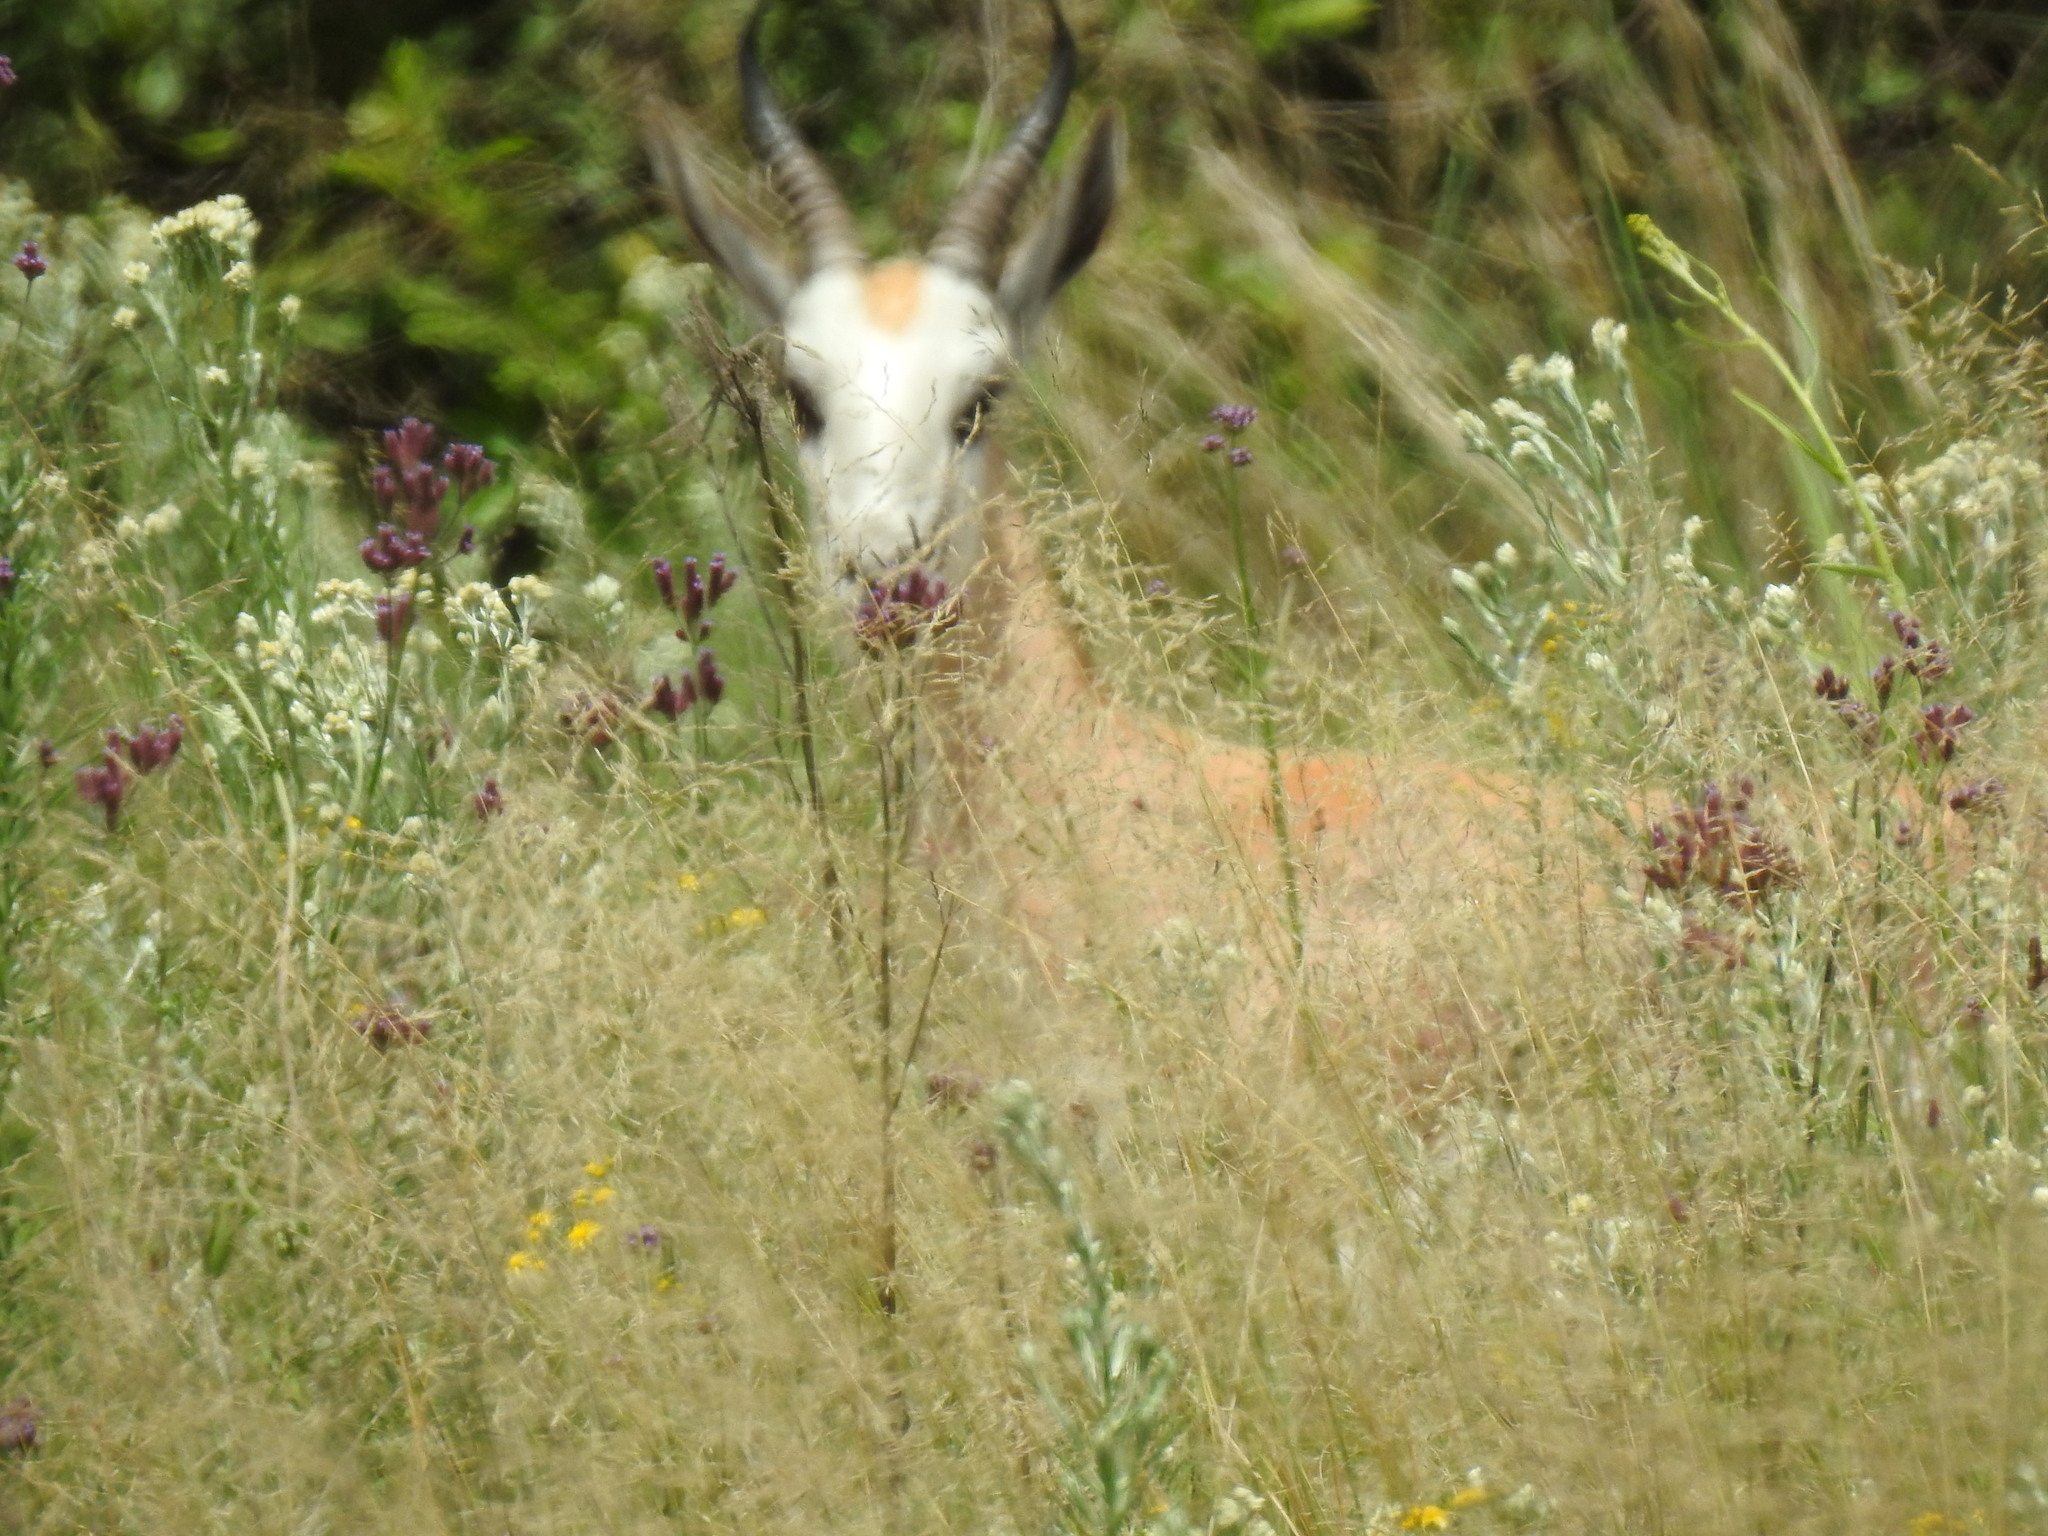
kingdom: Animalia
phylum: Chordata
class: Mammalia
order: Artiodactyla
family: Bovidae
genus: Antidorcas
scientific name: Antidorcas marsupialis
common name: Springbok
